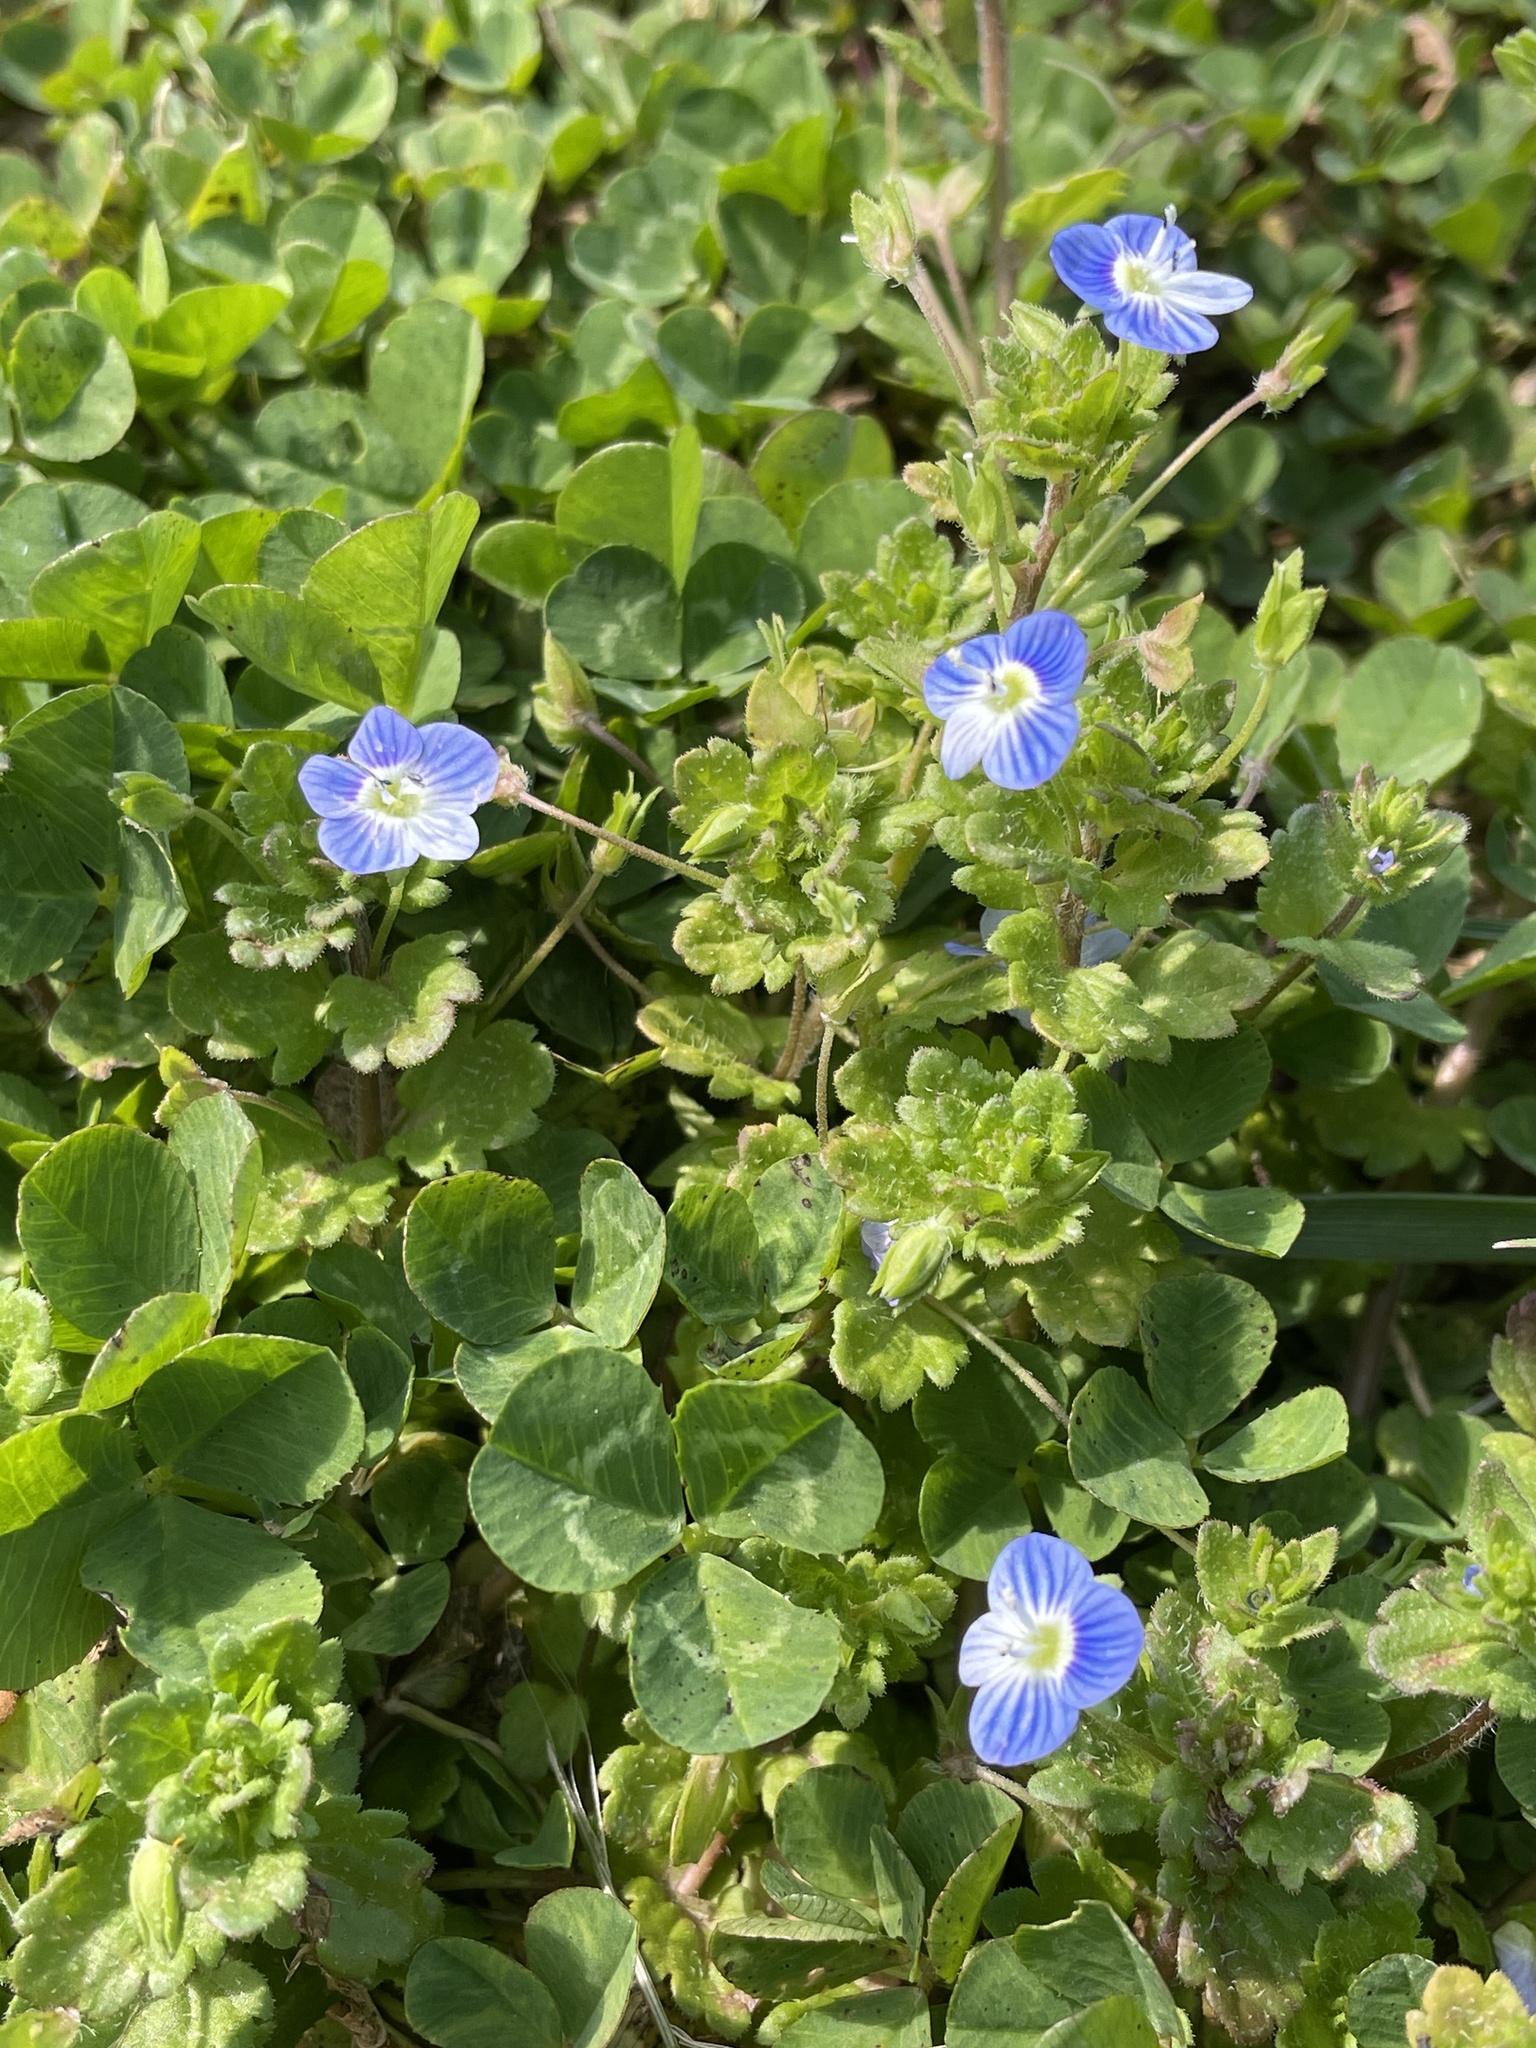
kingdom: Plantae
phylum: Tracheophyta
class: Magnoliopsida
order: Lamiales
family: Plantaginaceae
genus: Veronica
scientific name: Veronica persica
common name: Common field-speedwell
